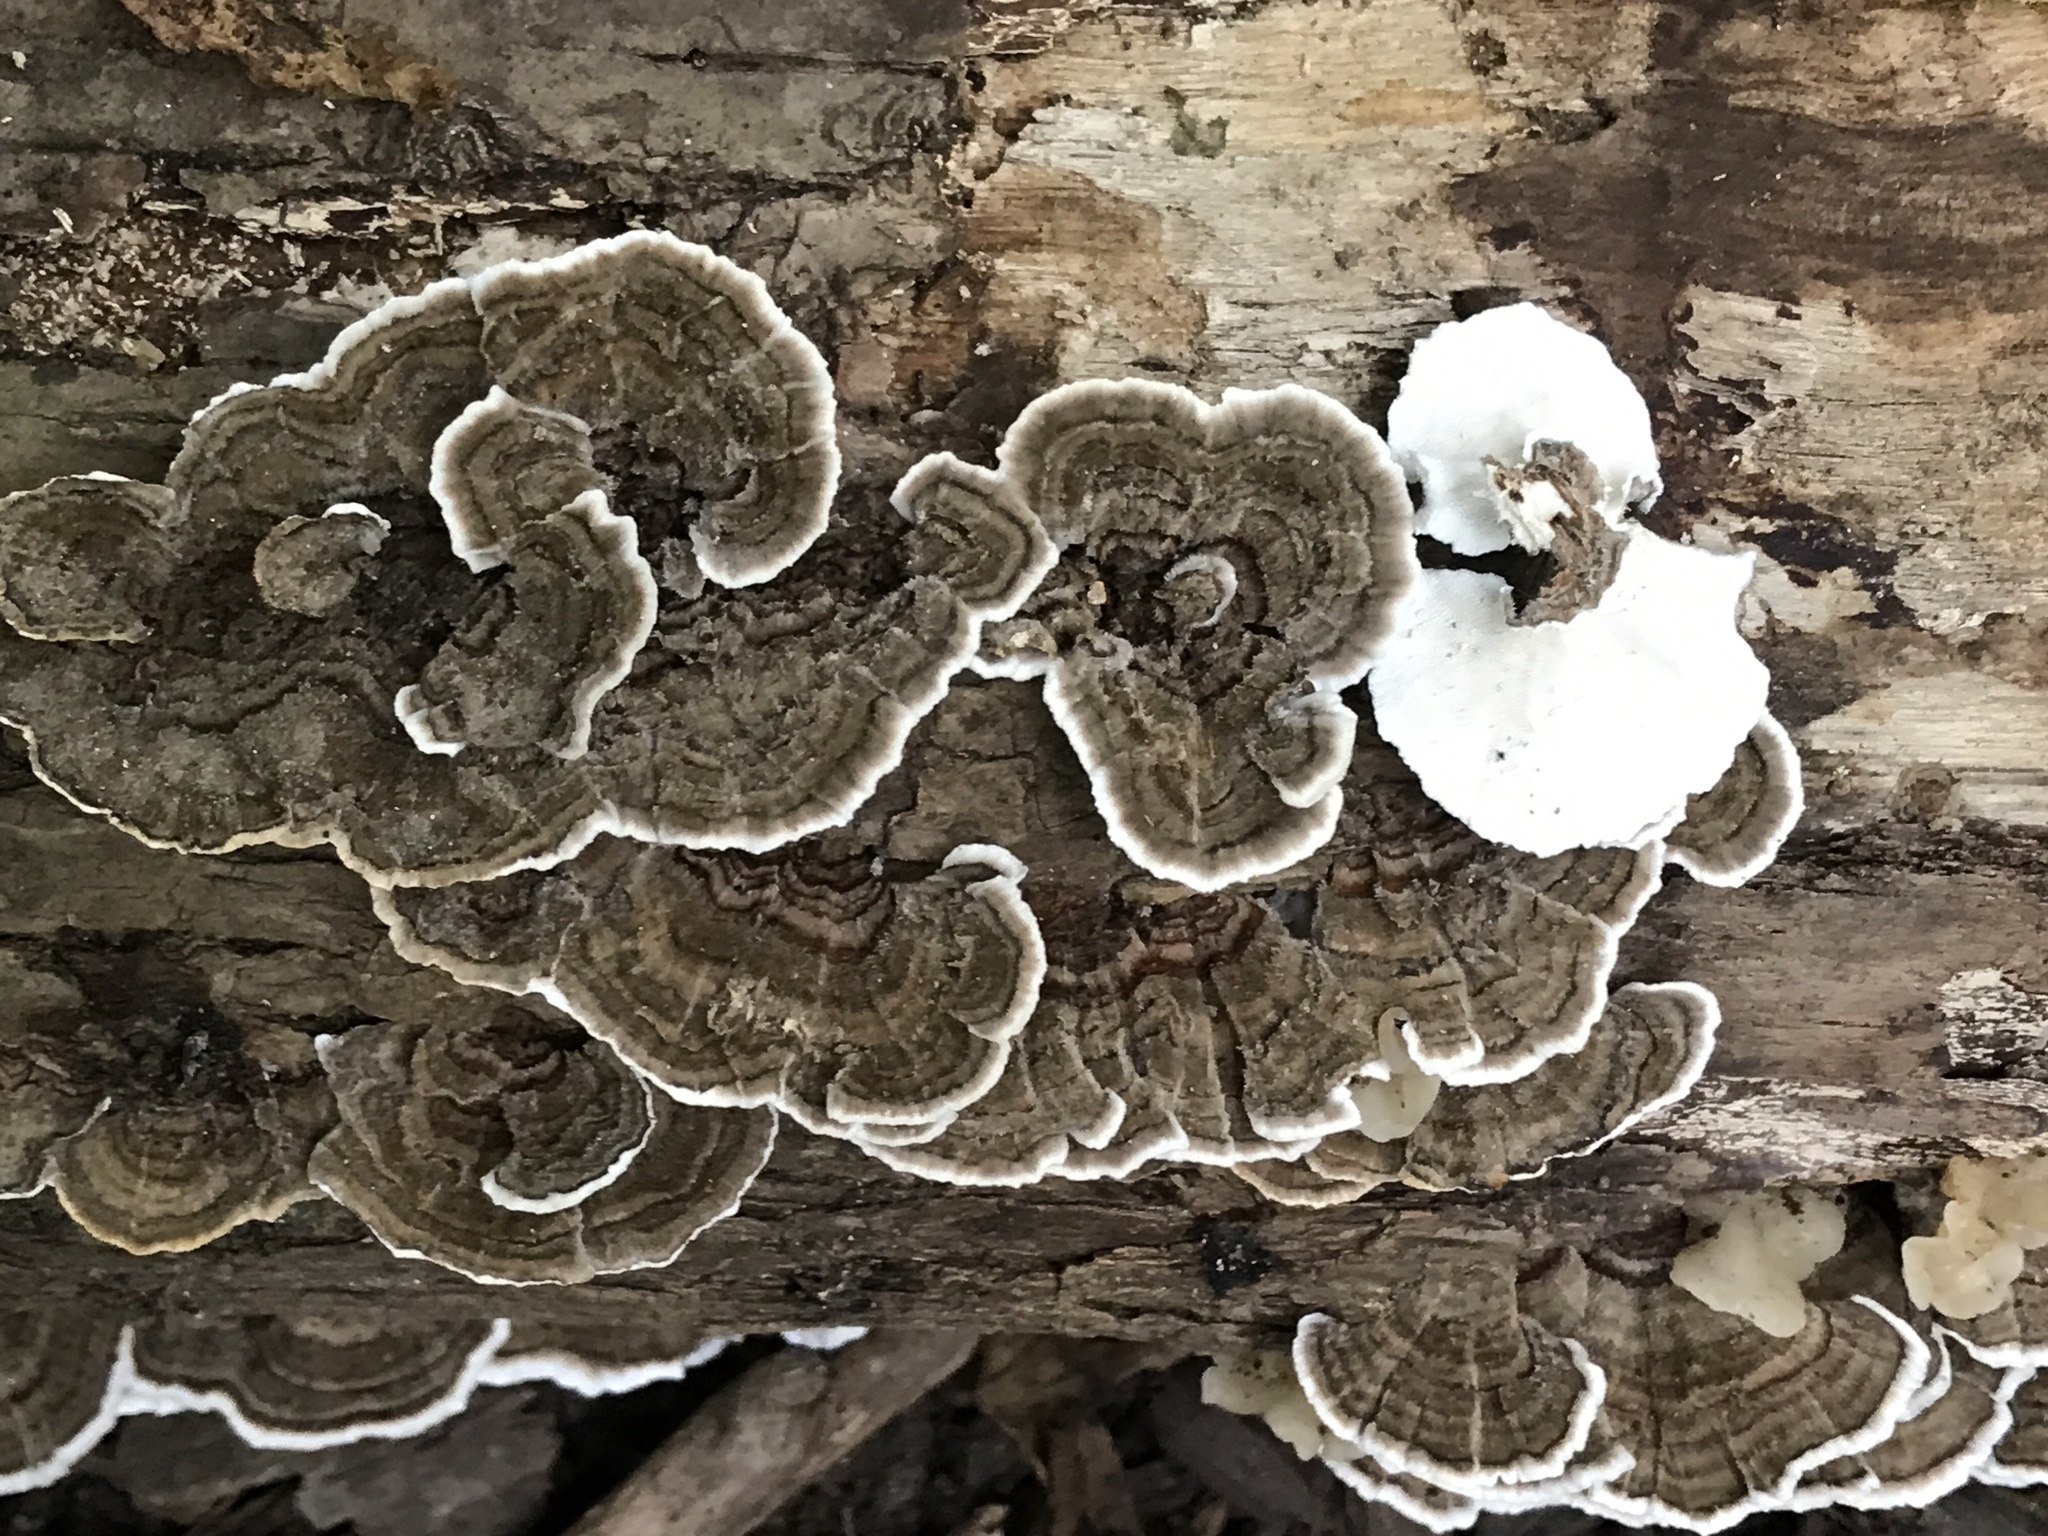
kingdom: Fungi
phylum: Basidiomycota
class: Agaricomycetes
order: Polyporales
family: Polyporaceae
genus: Trametes
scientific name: Trametes versicolor
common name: Turkeytail
